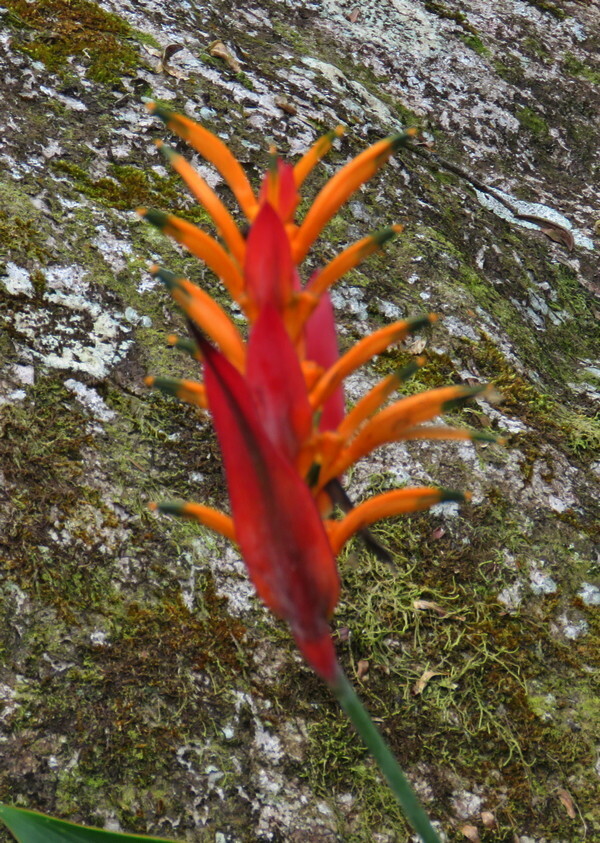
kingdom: Plantae
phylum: Tracheophyta
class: Liliopsida
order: Zingiberales
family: Heliconiaceae
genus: Heliconia
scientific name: Heliconia psittacorum
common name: Parrot's-flower
